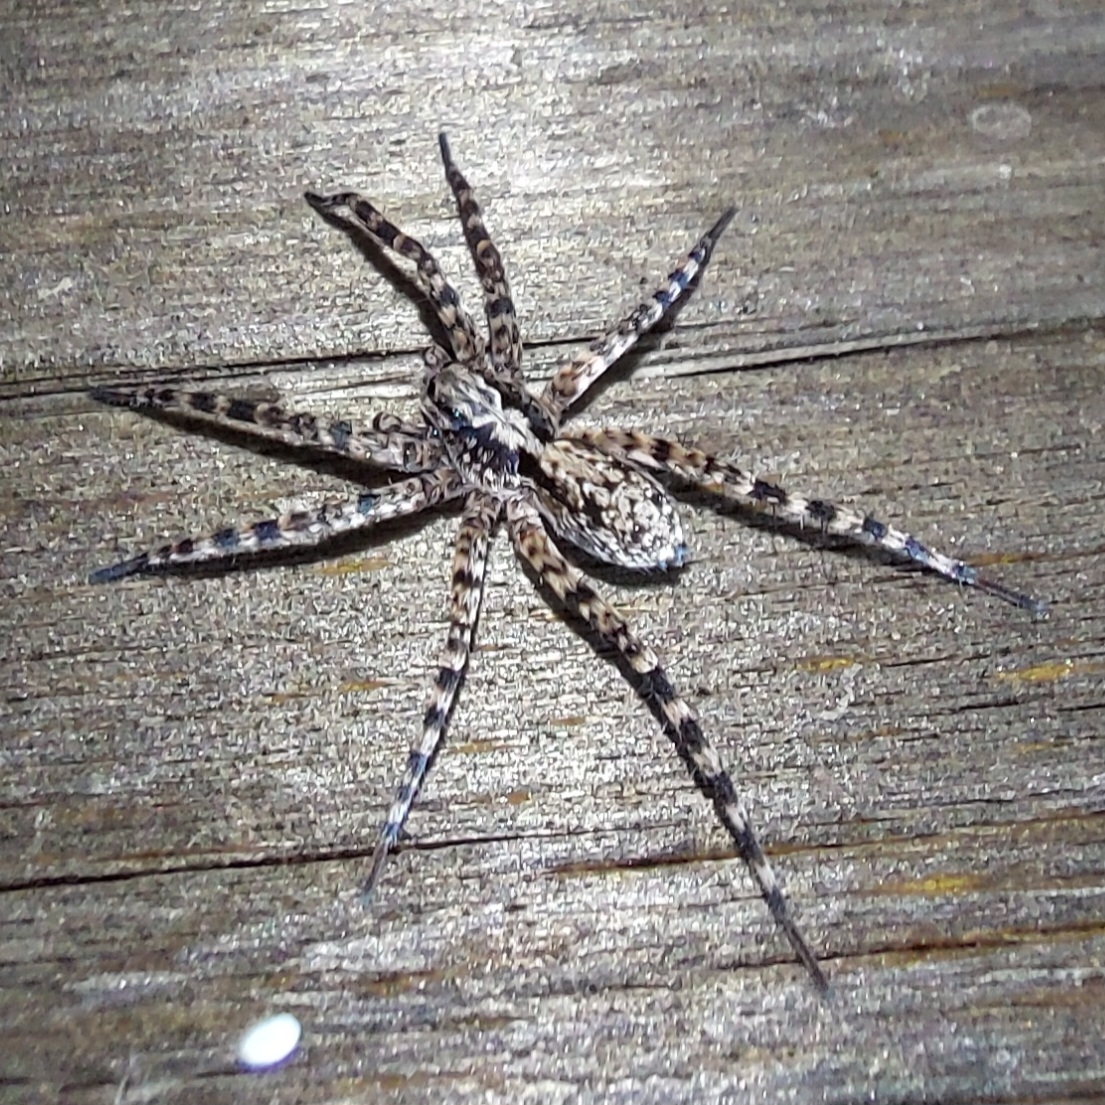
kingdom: Animalia
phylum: Arthropoda
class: Arachnida
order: Araneae
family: Lycosidae
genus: Acantholycosa
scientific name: Acantholycosa lignaria
